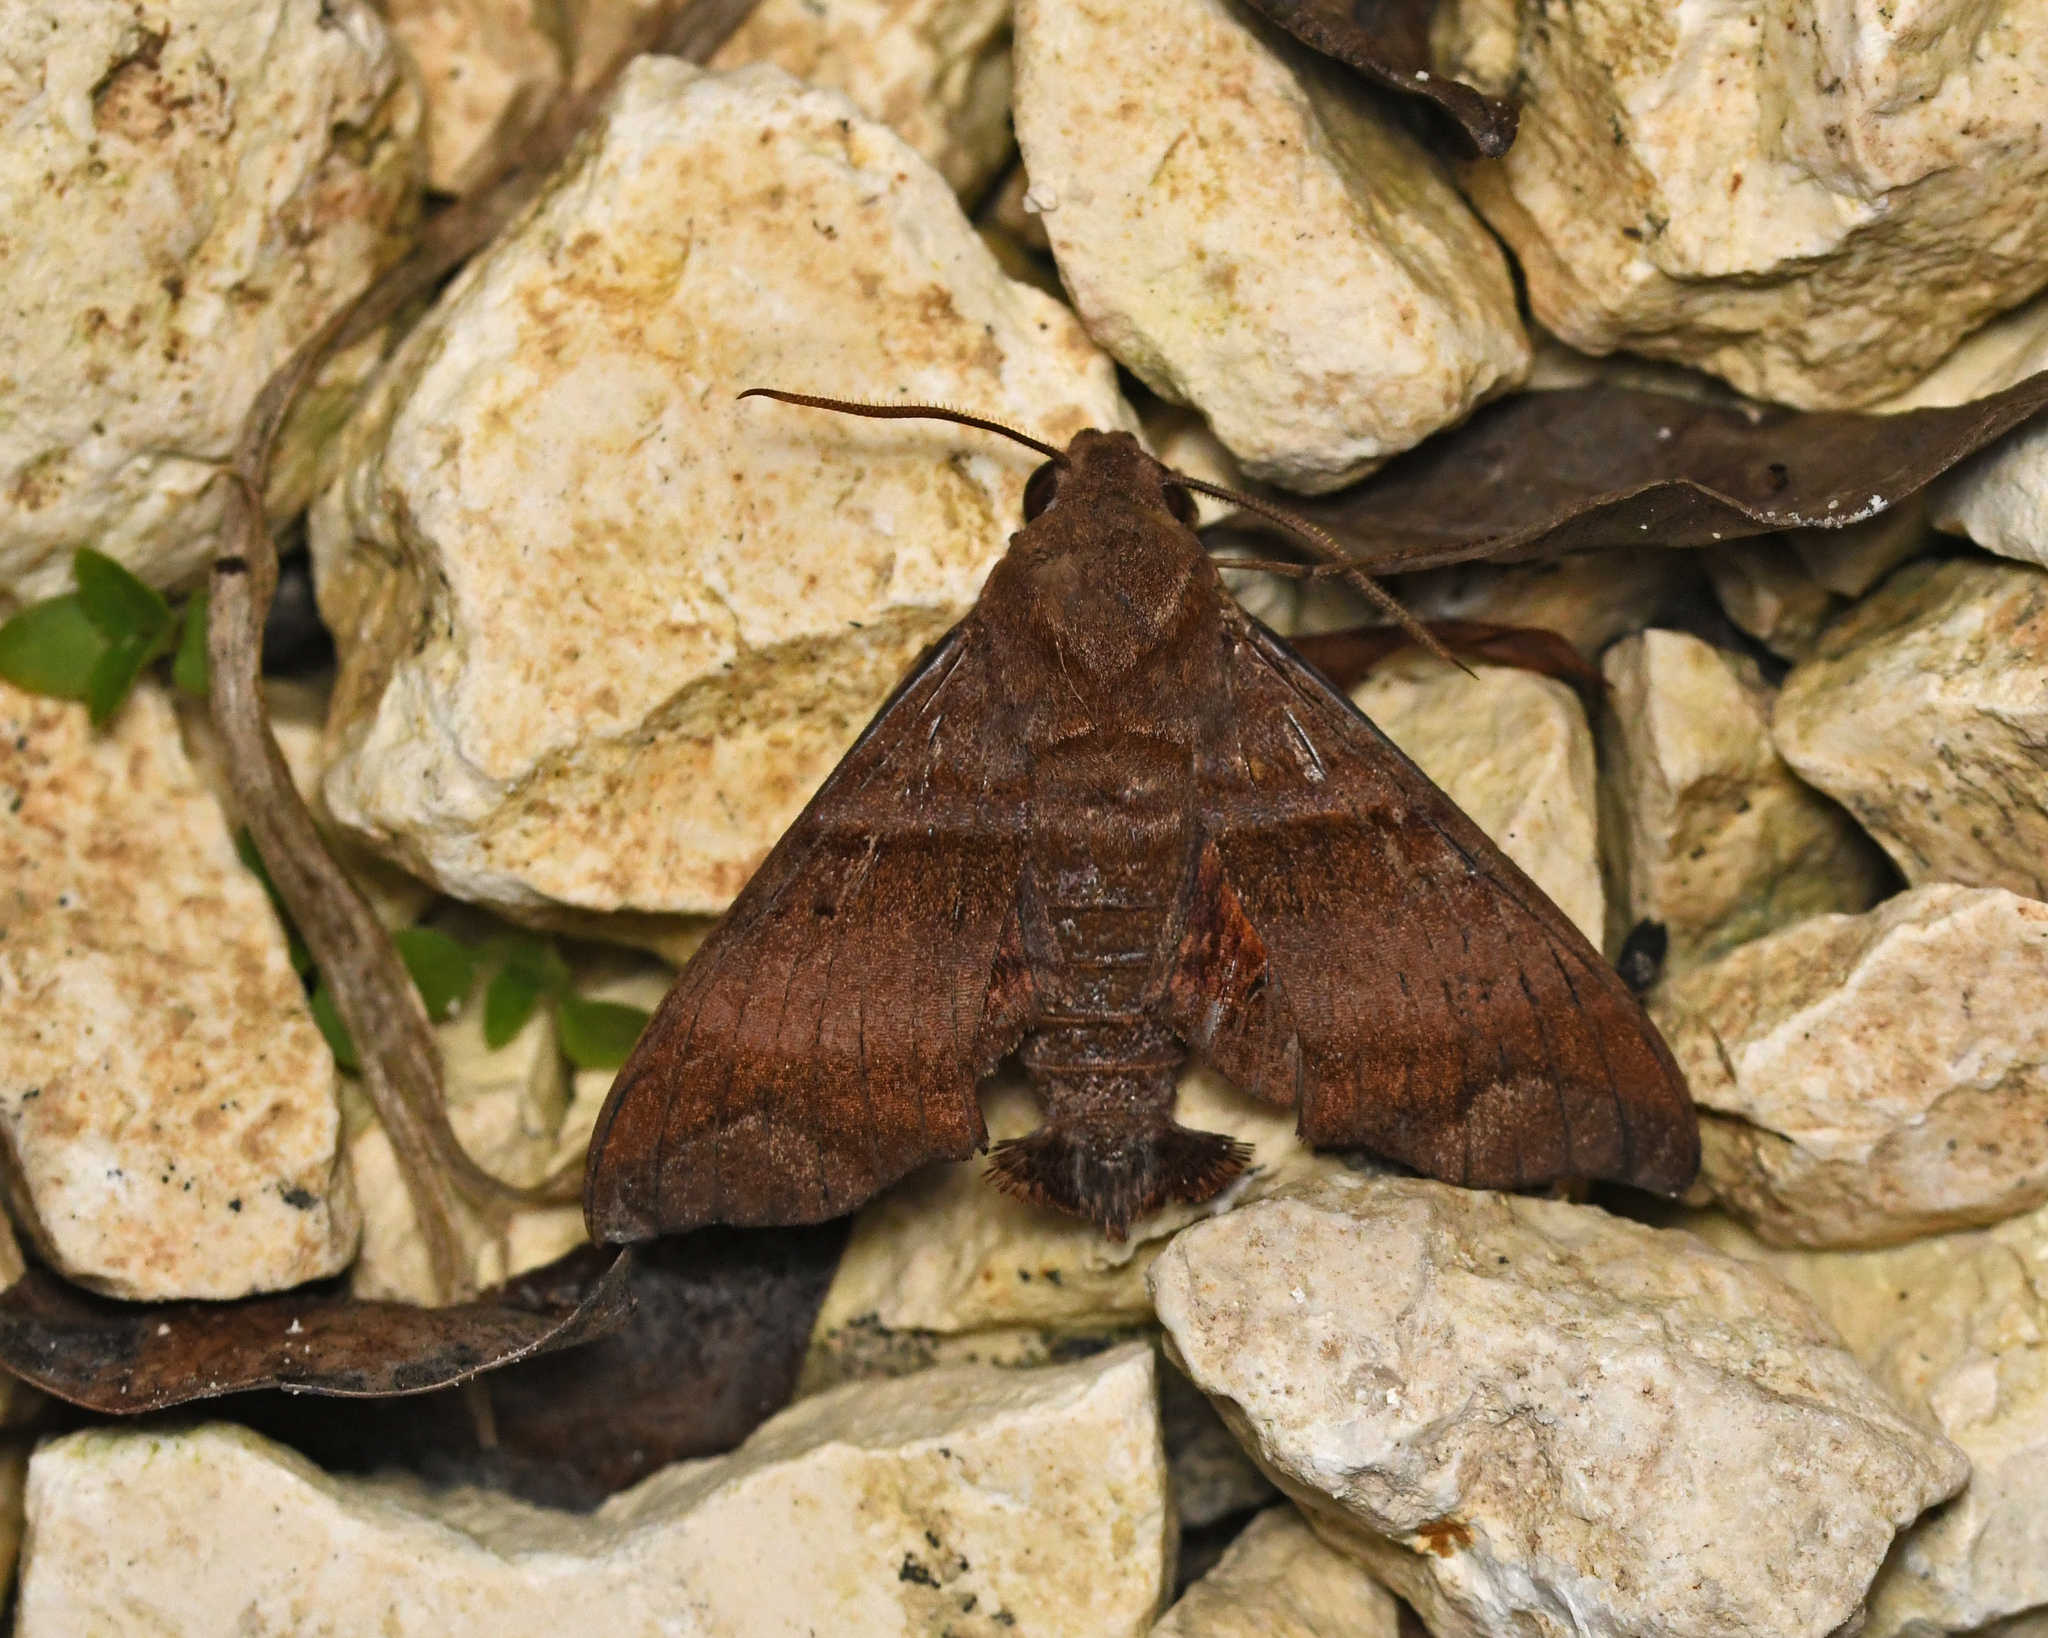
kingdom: Animalia
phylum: Arthropoda
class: Insecta
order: Lepidoptera
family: Sphingidae
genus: Perigonia
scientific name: Perigonia caryae
